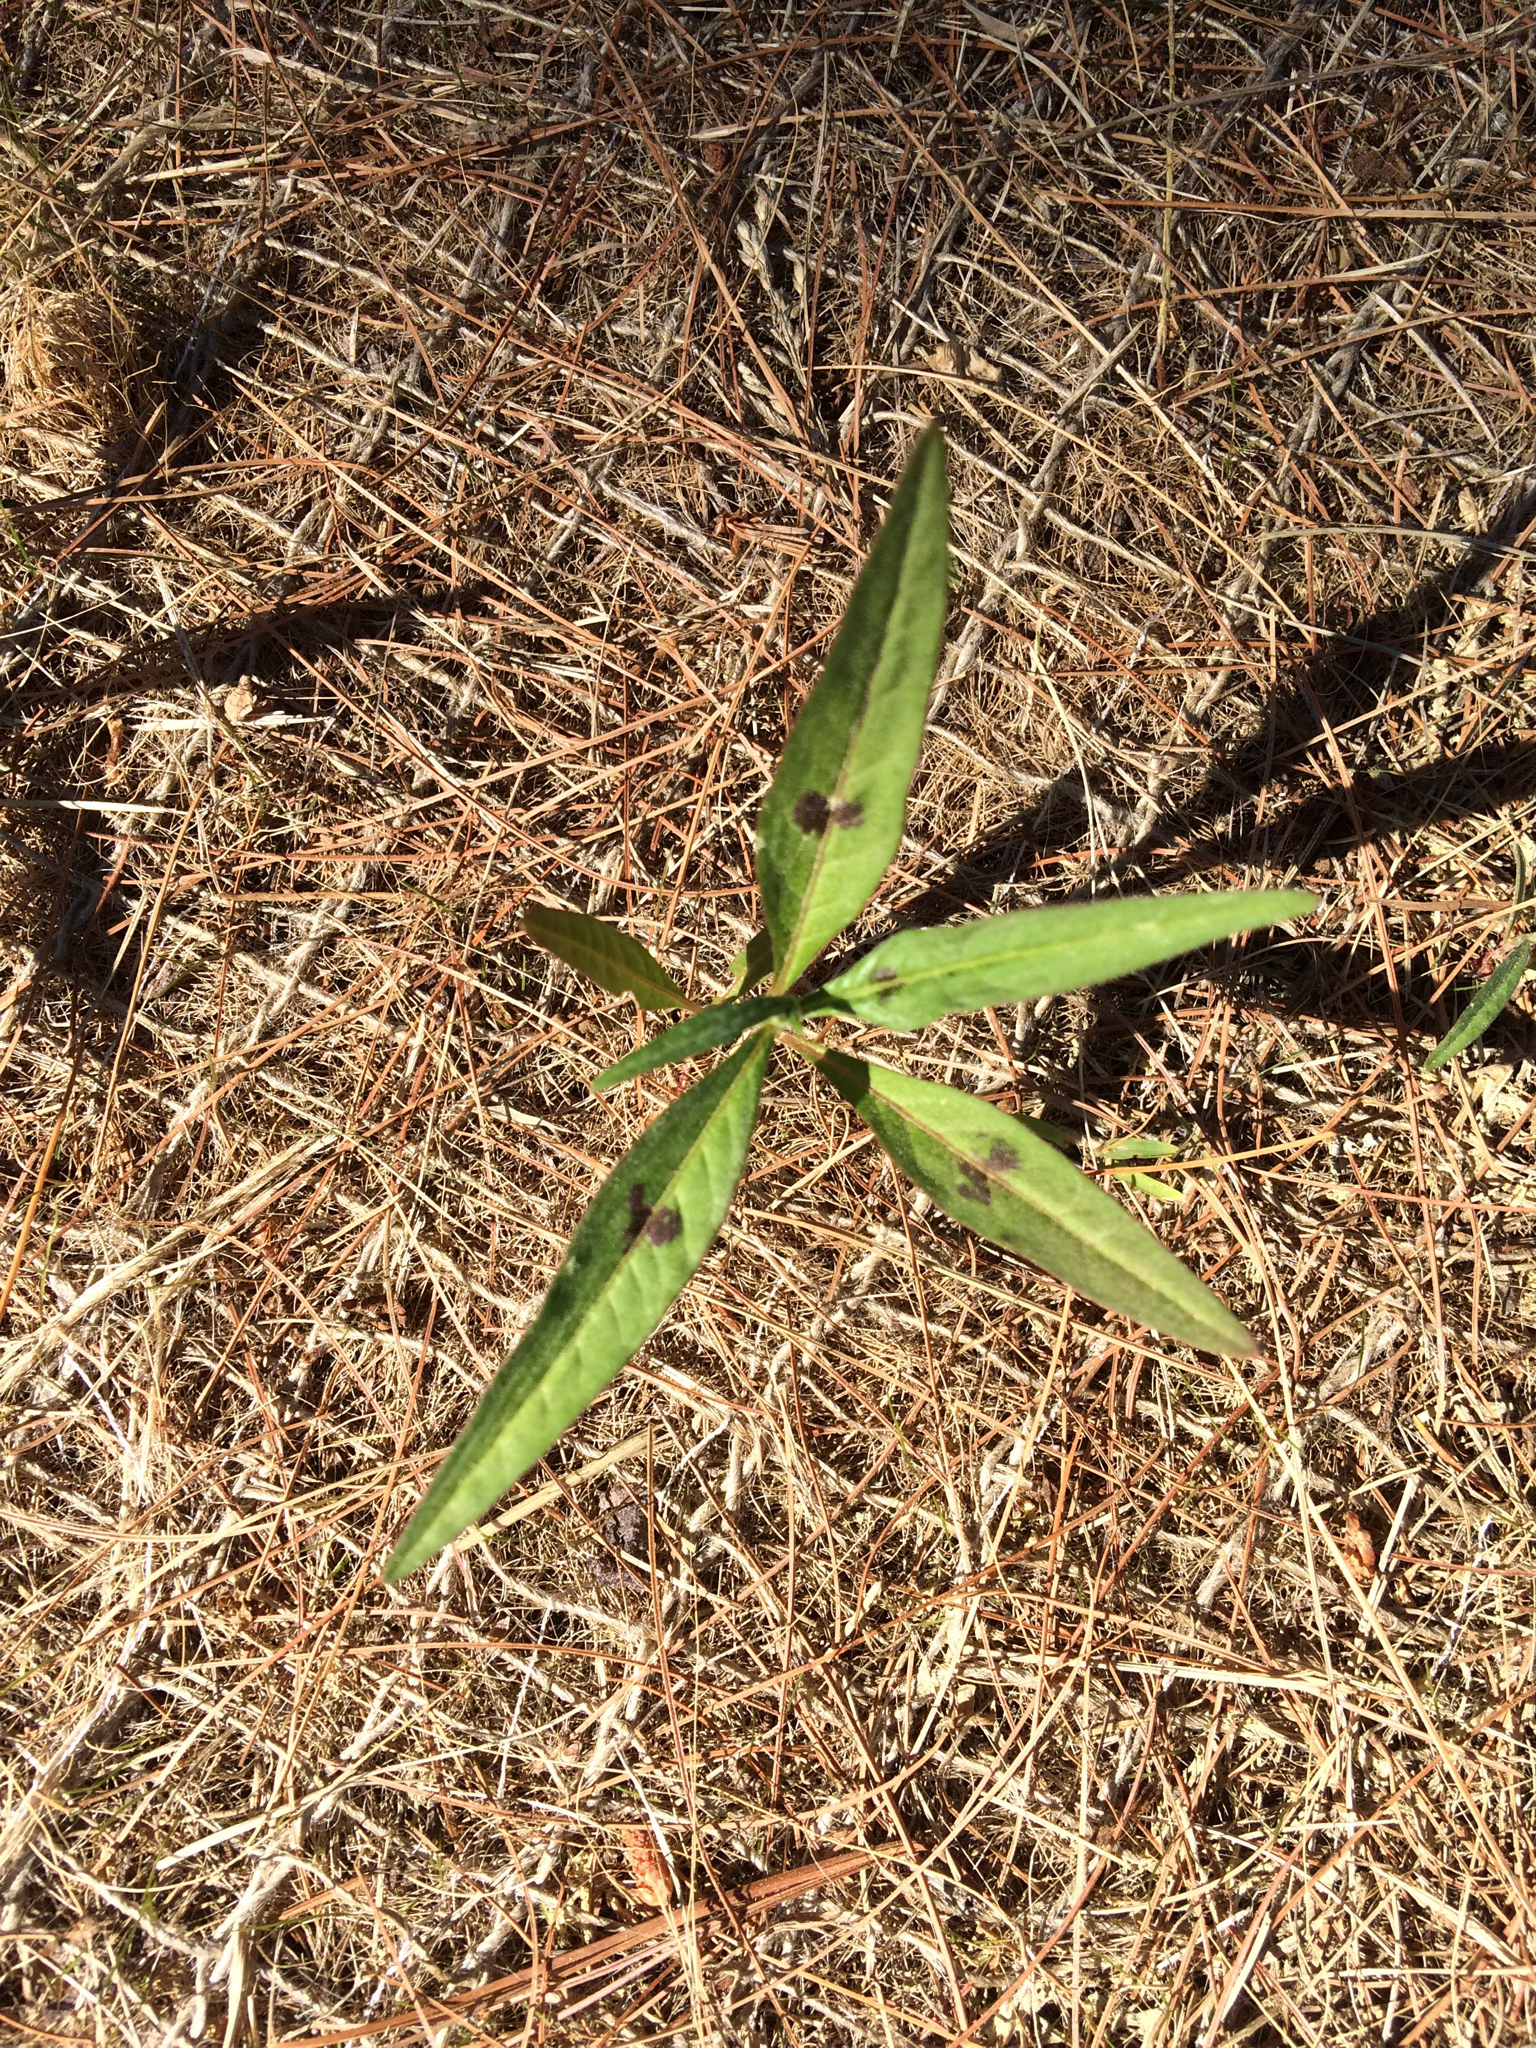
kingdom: Plantae
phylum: Tracheophyta
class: Magnoliopsida
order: Caryophyllales
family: Polygonaceae
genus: Persicaria
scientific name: Persicaria maculosa
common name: Redshank
